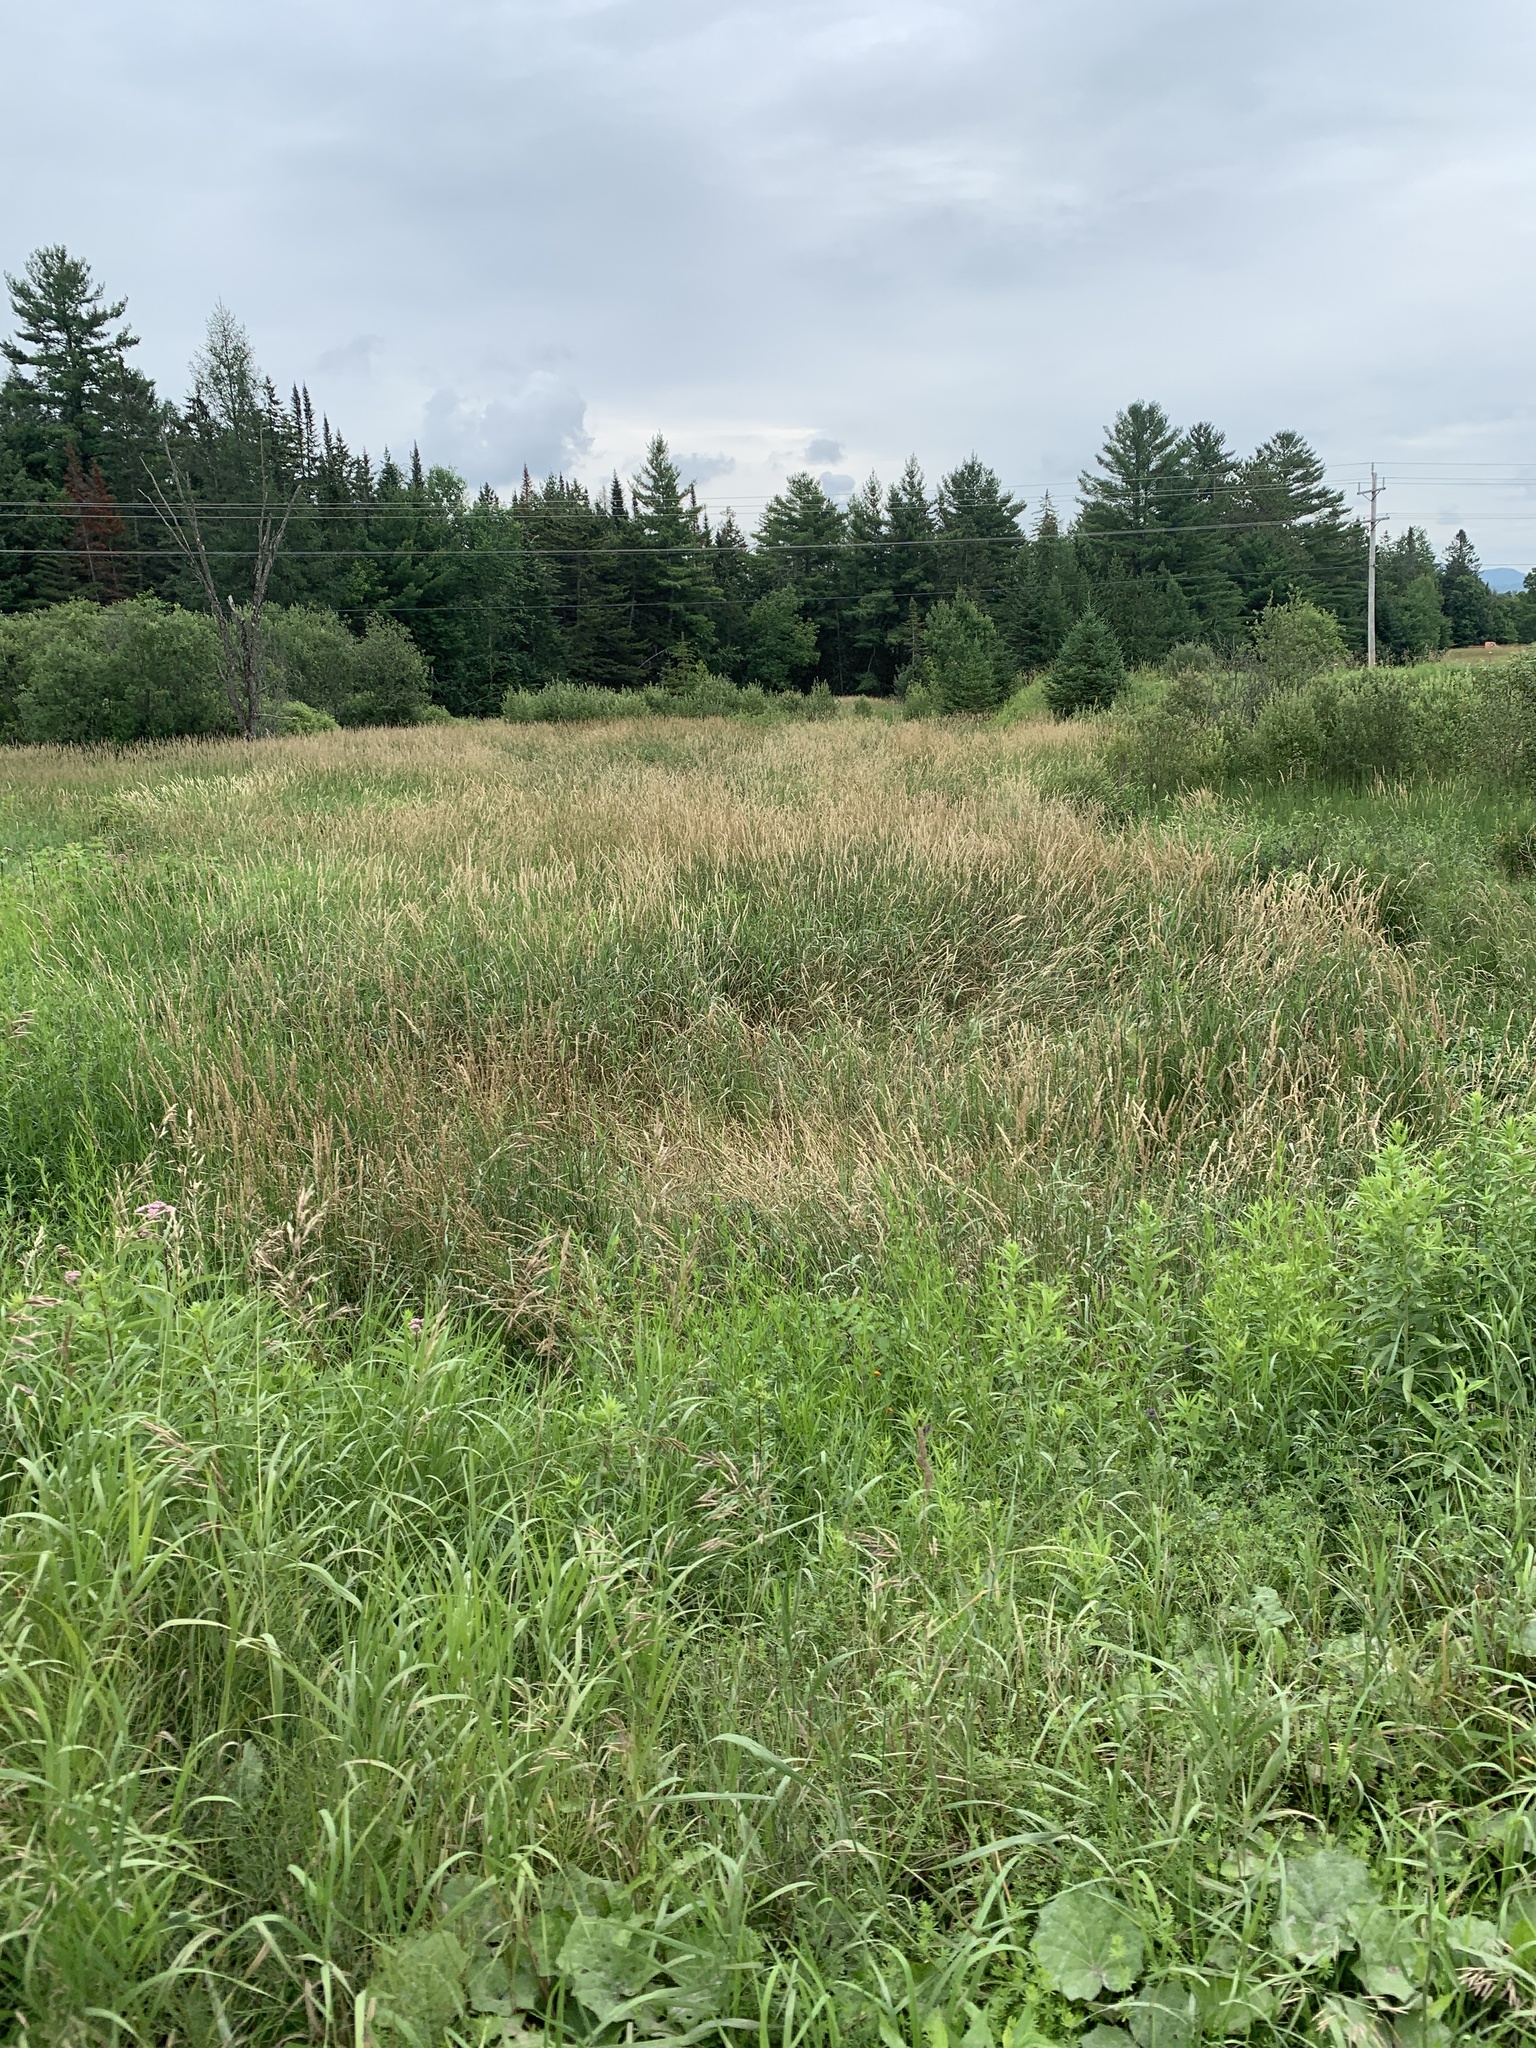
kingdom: Plantae
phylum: Tracheophyta
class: Liliopsida
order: Poales
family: Poaceae
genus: Phalaris
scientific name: Phalaris arundinacea
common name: Reed canary-grass
